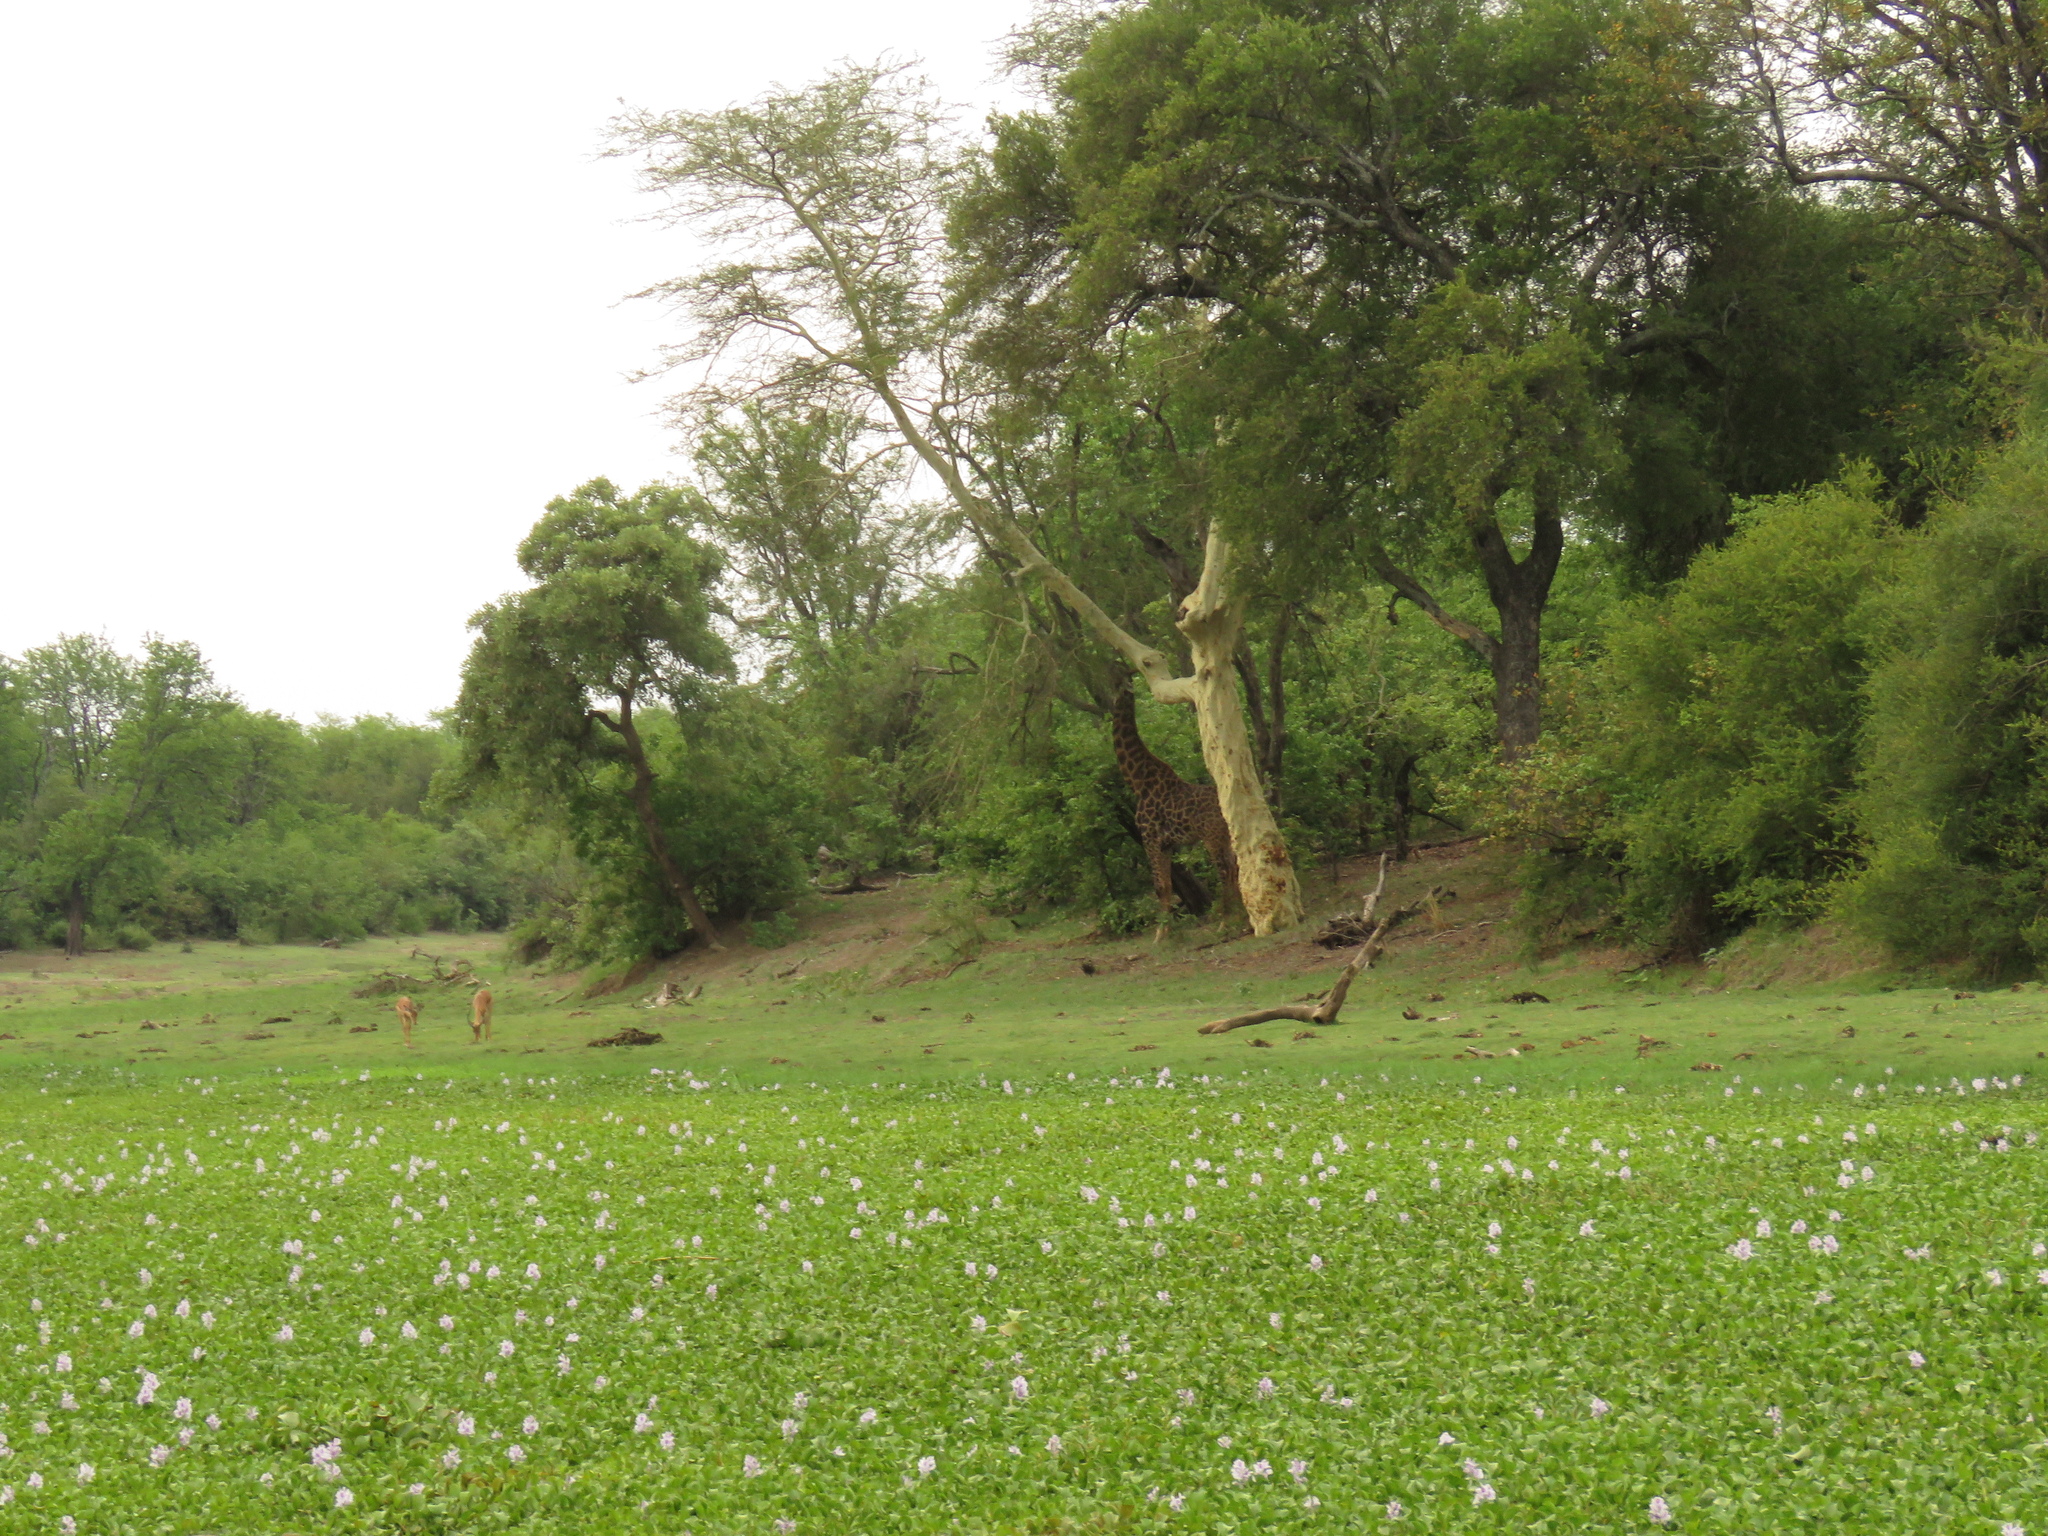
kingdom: Animalia
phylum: Chordata
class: Mammalia
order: Artiodactyla
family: Giraffidae
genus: Giraffa
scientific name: Giraffa giraffa
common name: Southern giraffe
